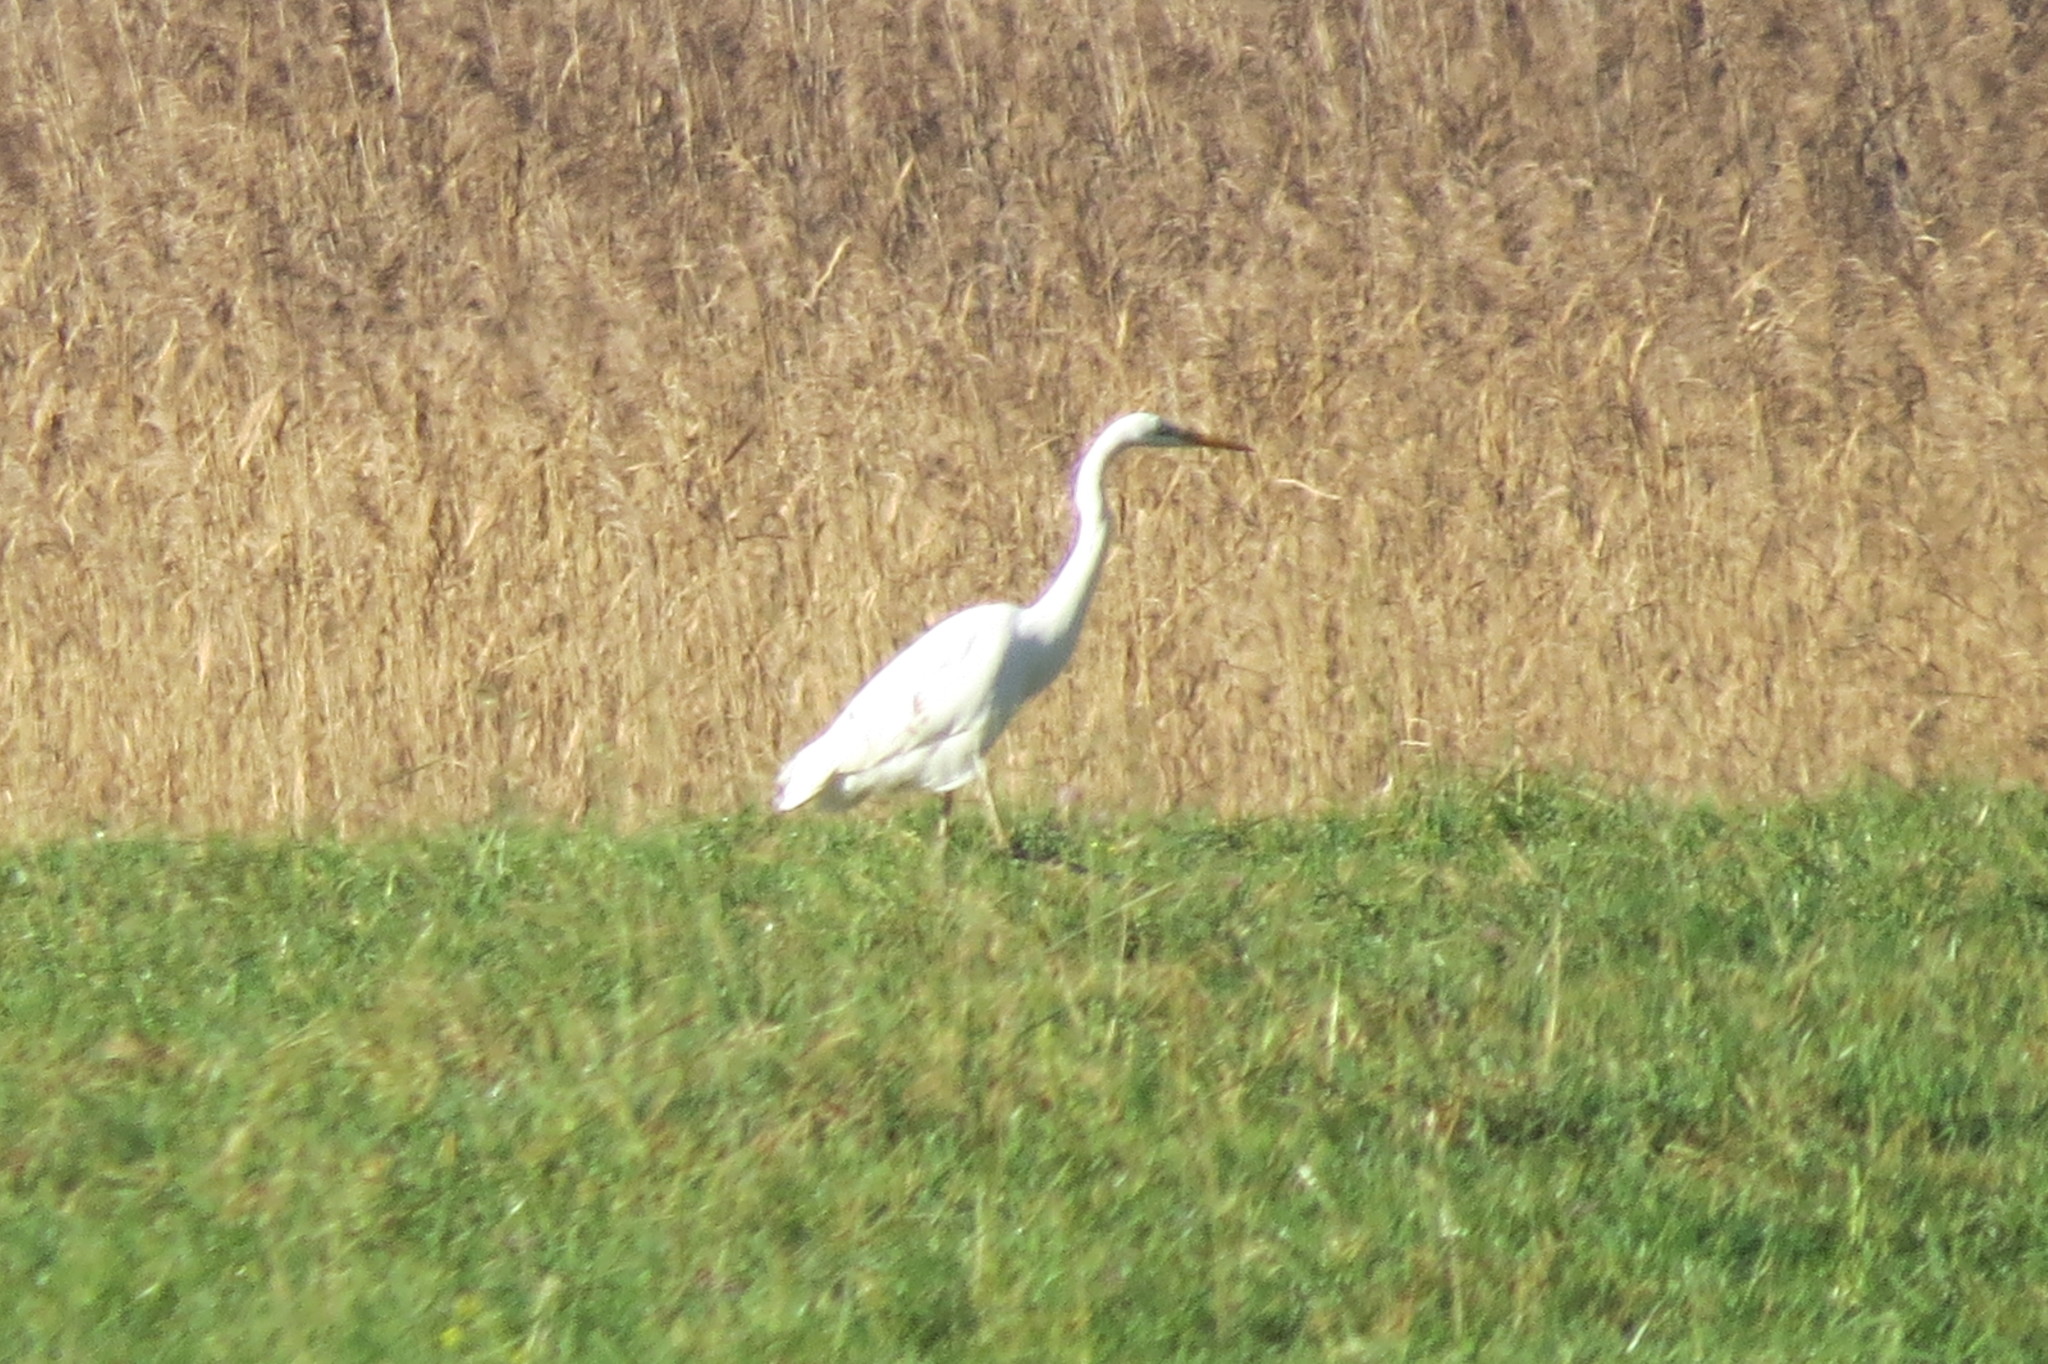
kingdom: Animalia
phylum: Chordata
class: Aves
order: Pelecaniformes
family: Ardeidae
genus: Ardea
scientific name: Ardea alba
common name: Great egret
